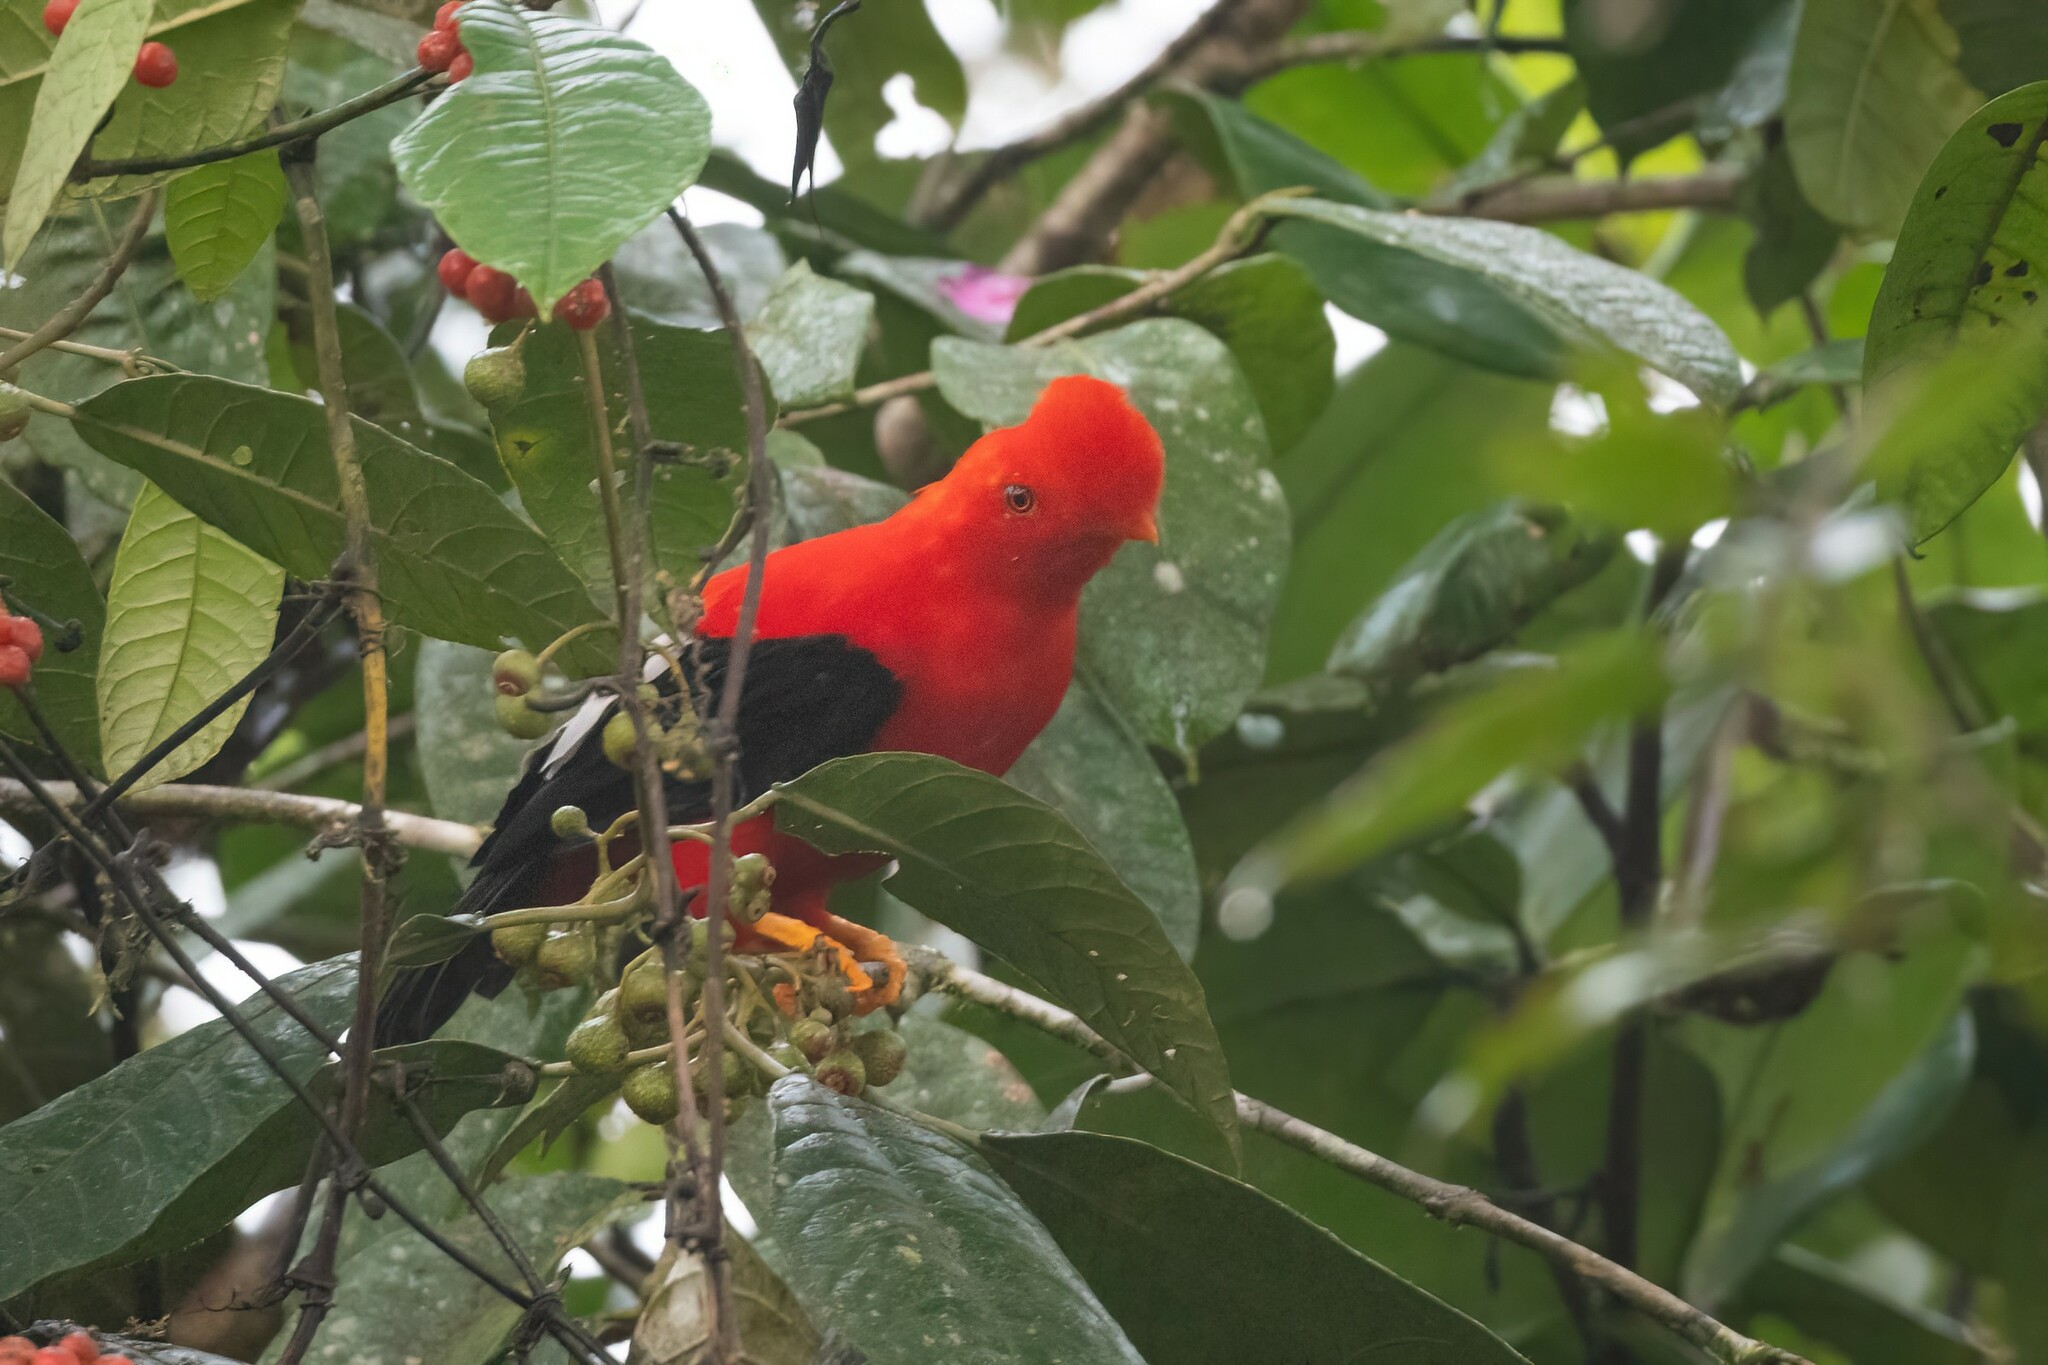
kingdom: Animalia
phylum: Chordata
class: Aves
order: Passeriformes
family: Cotingidae
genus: Rupicola
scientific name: Rupicola peruvianus
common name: Andean cock-of-the-rock
